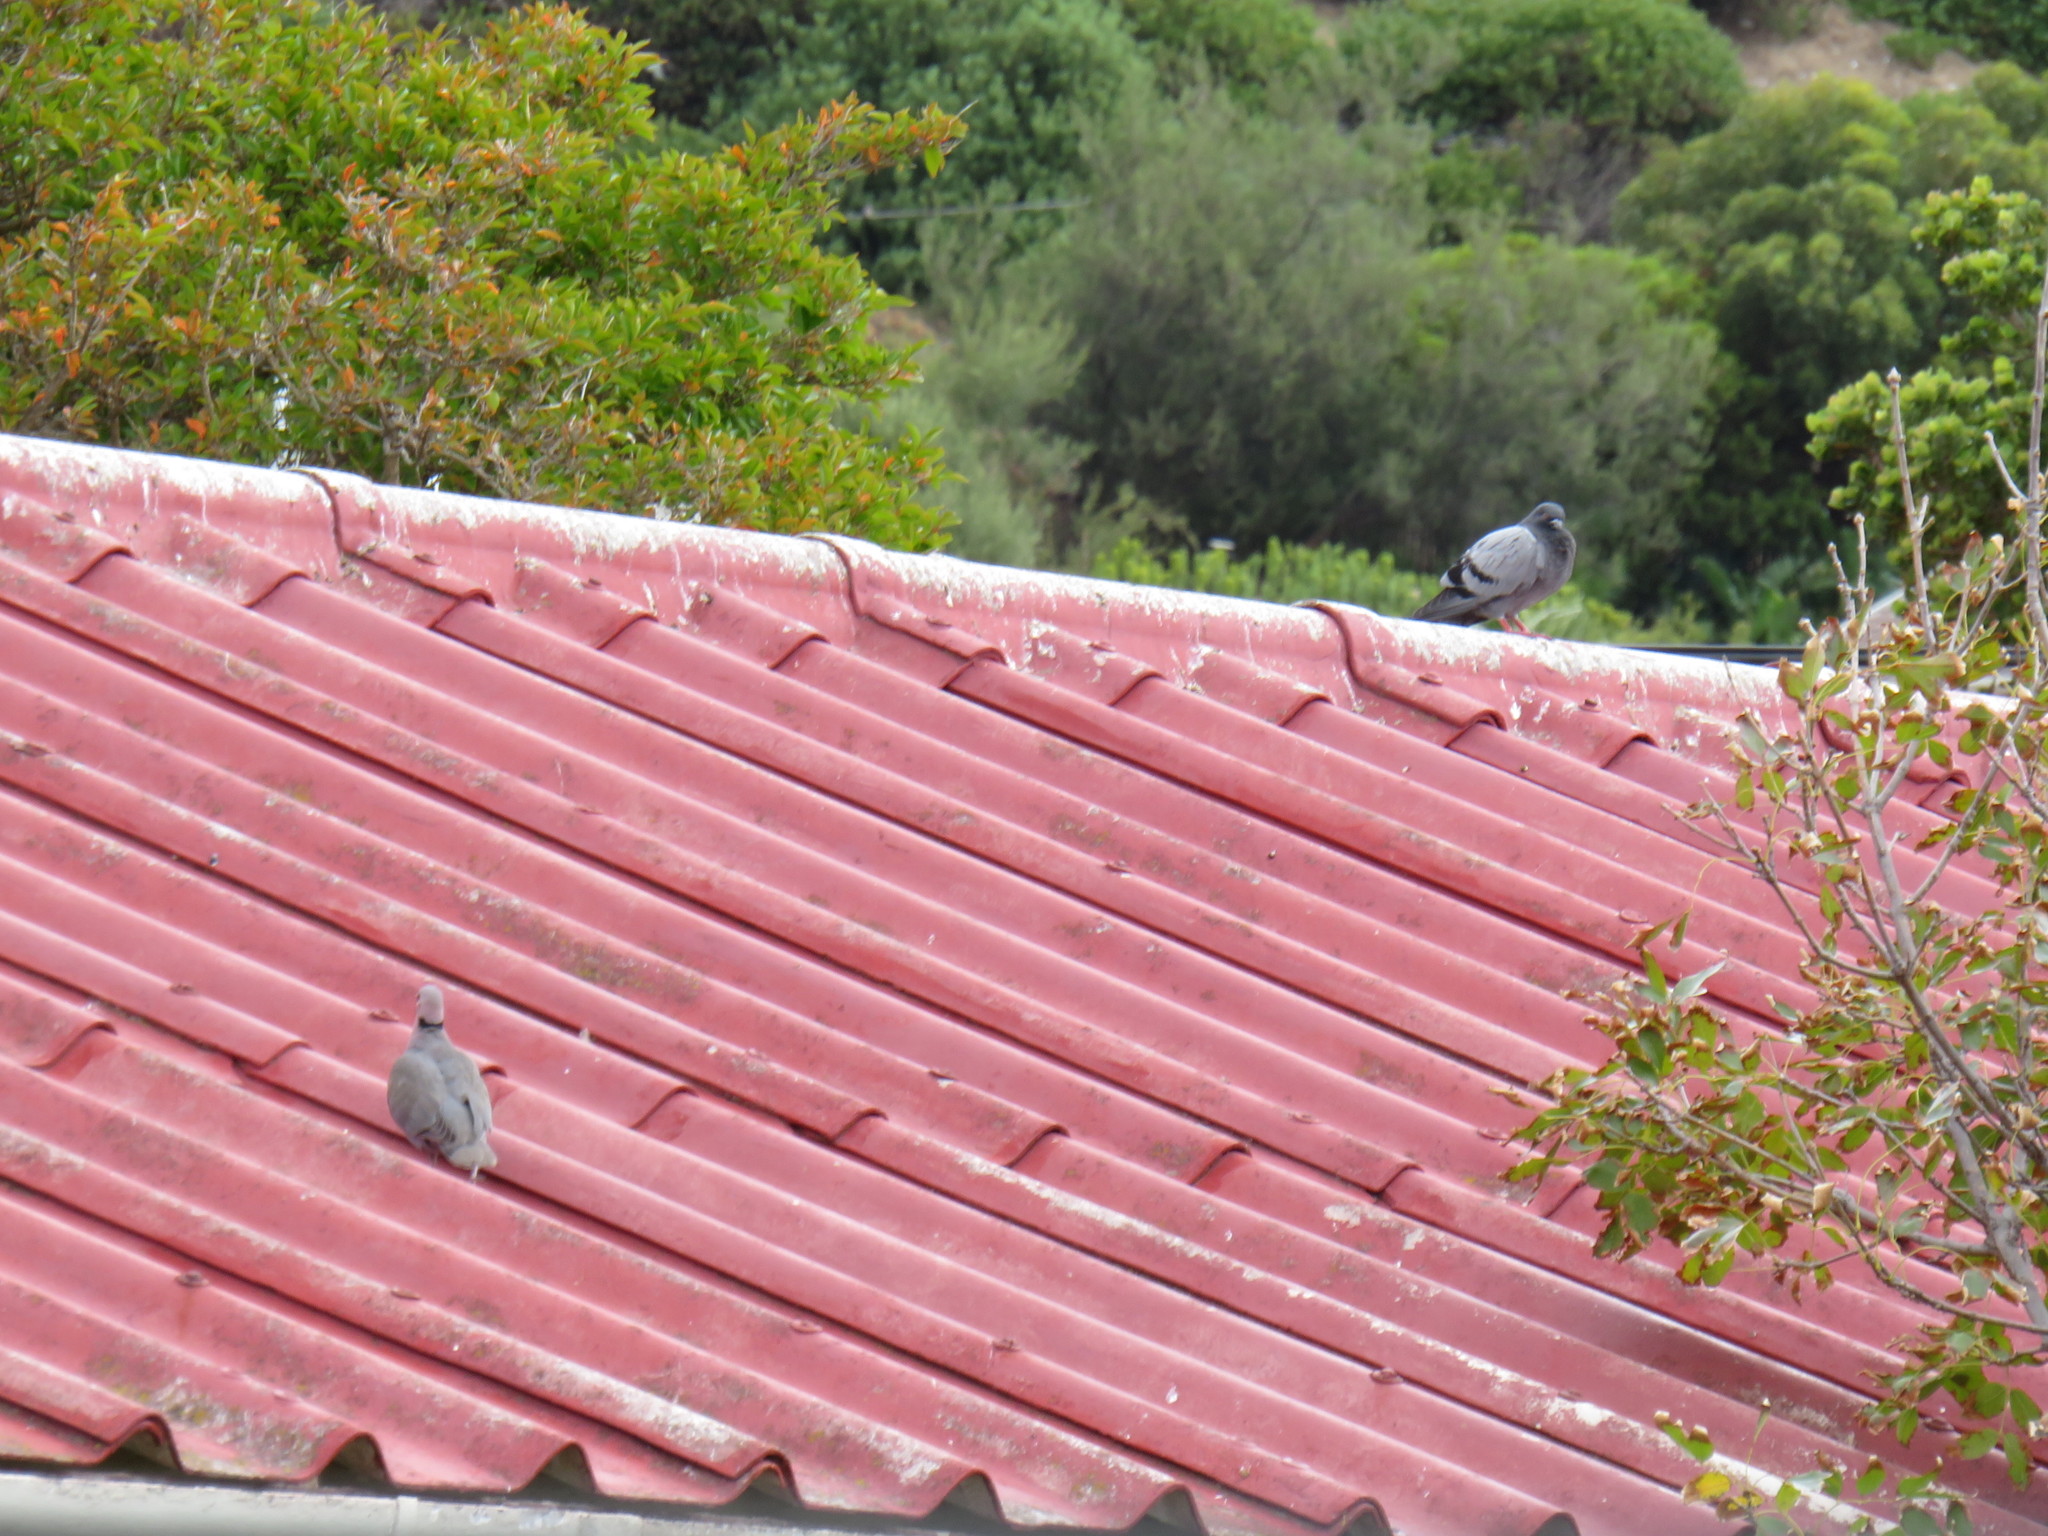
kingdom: Animalia
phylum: Chordata
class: Aves
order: Columbiformes
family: Columbidae
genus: Streptopelia
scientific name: Streptopelia semitorquata
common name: Red-eyed dove
